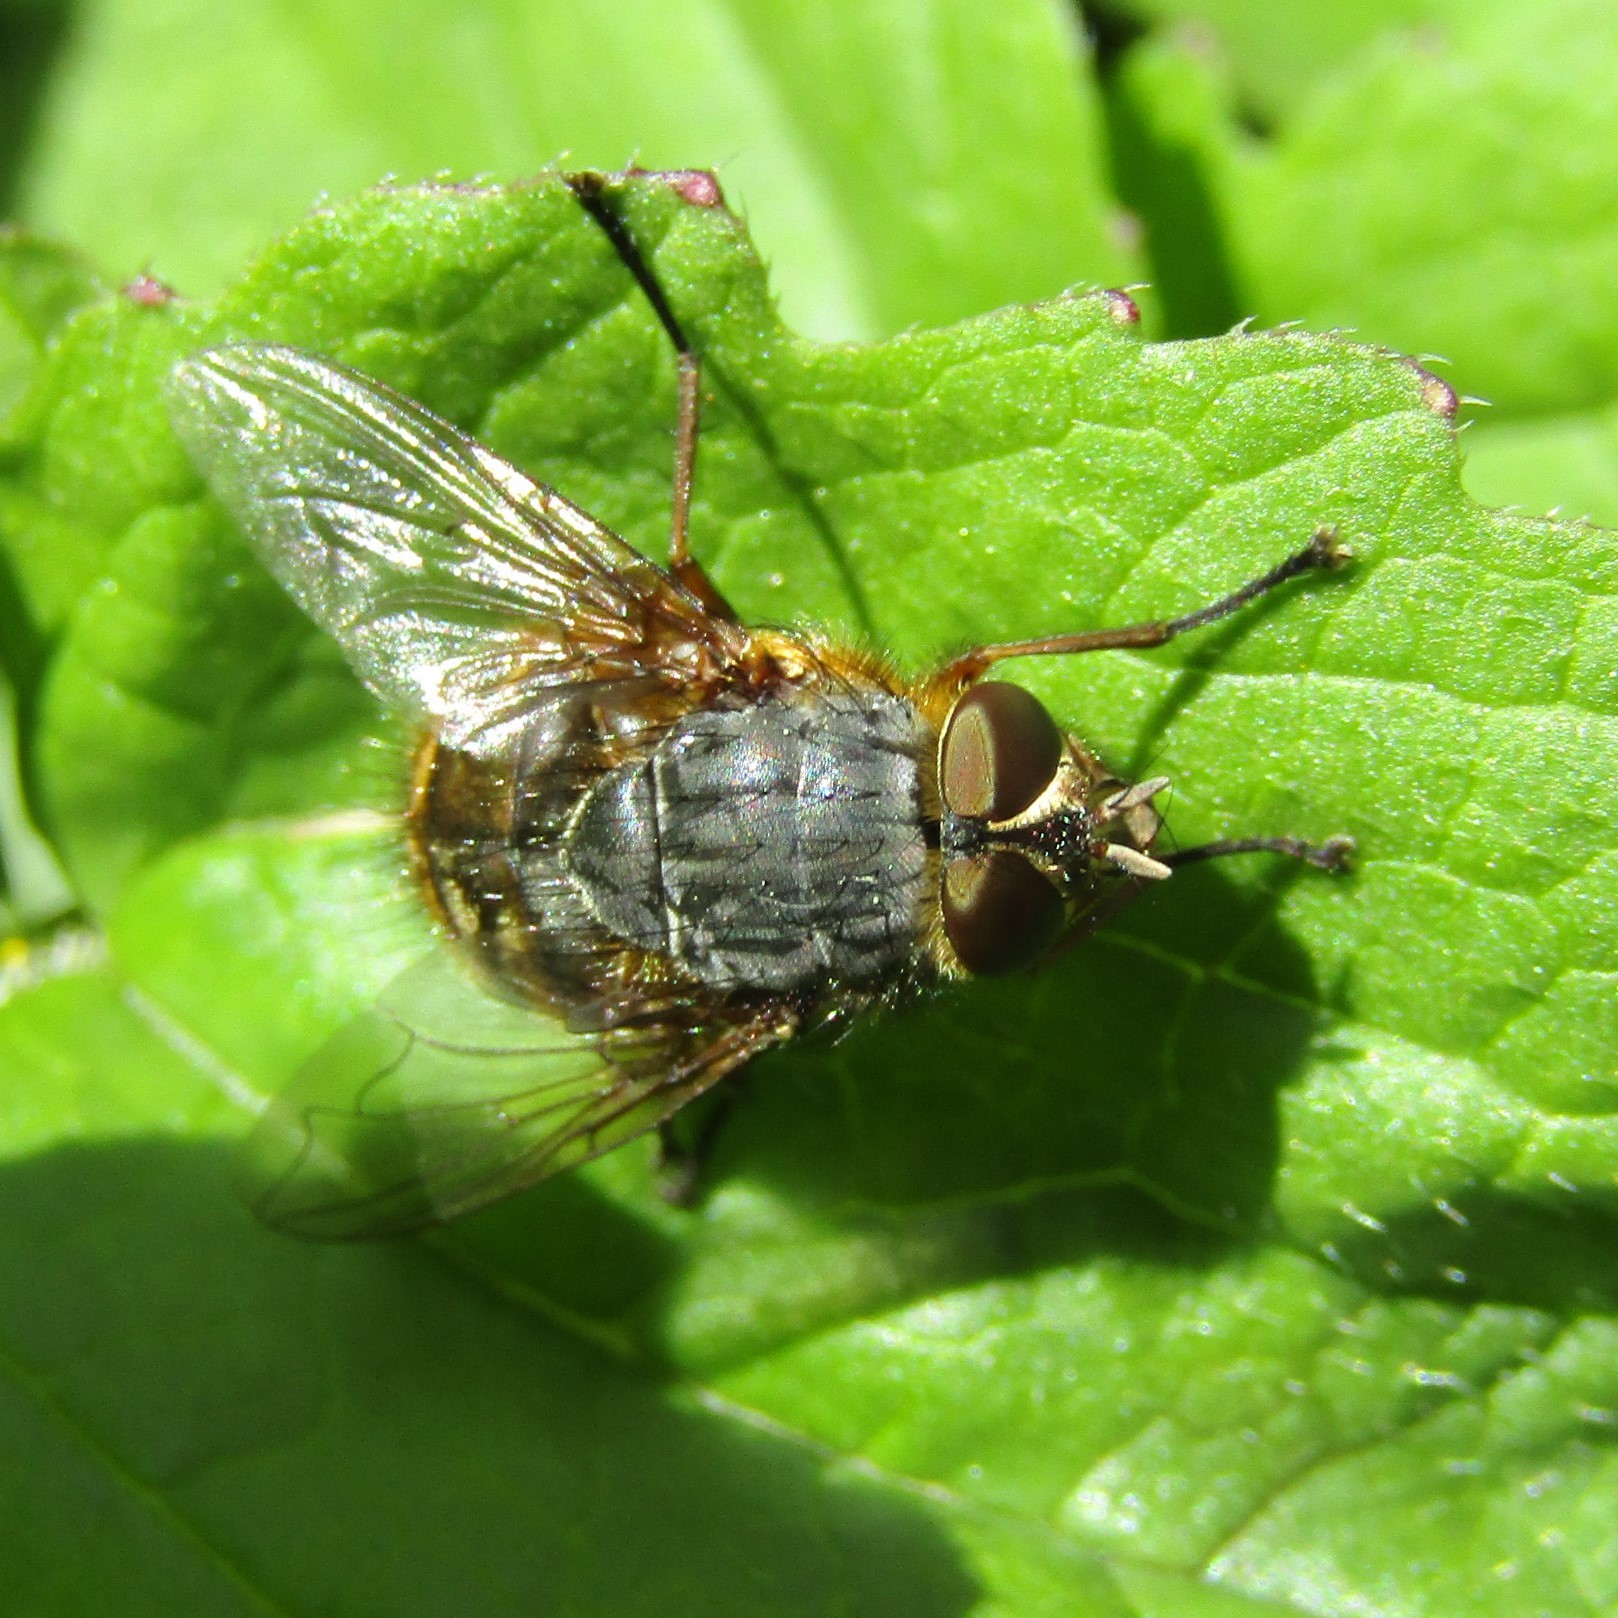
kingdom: Animalia
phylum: Arthropoda
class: Insecta
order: Diptera
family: Calliphoridae
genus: Calliphora
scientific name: Calliphora hilli
